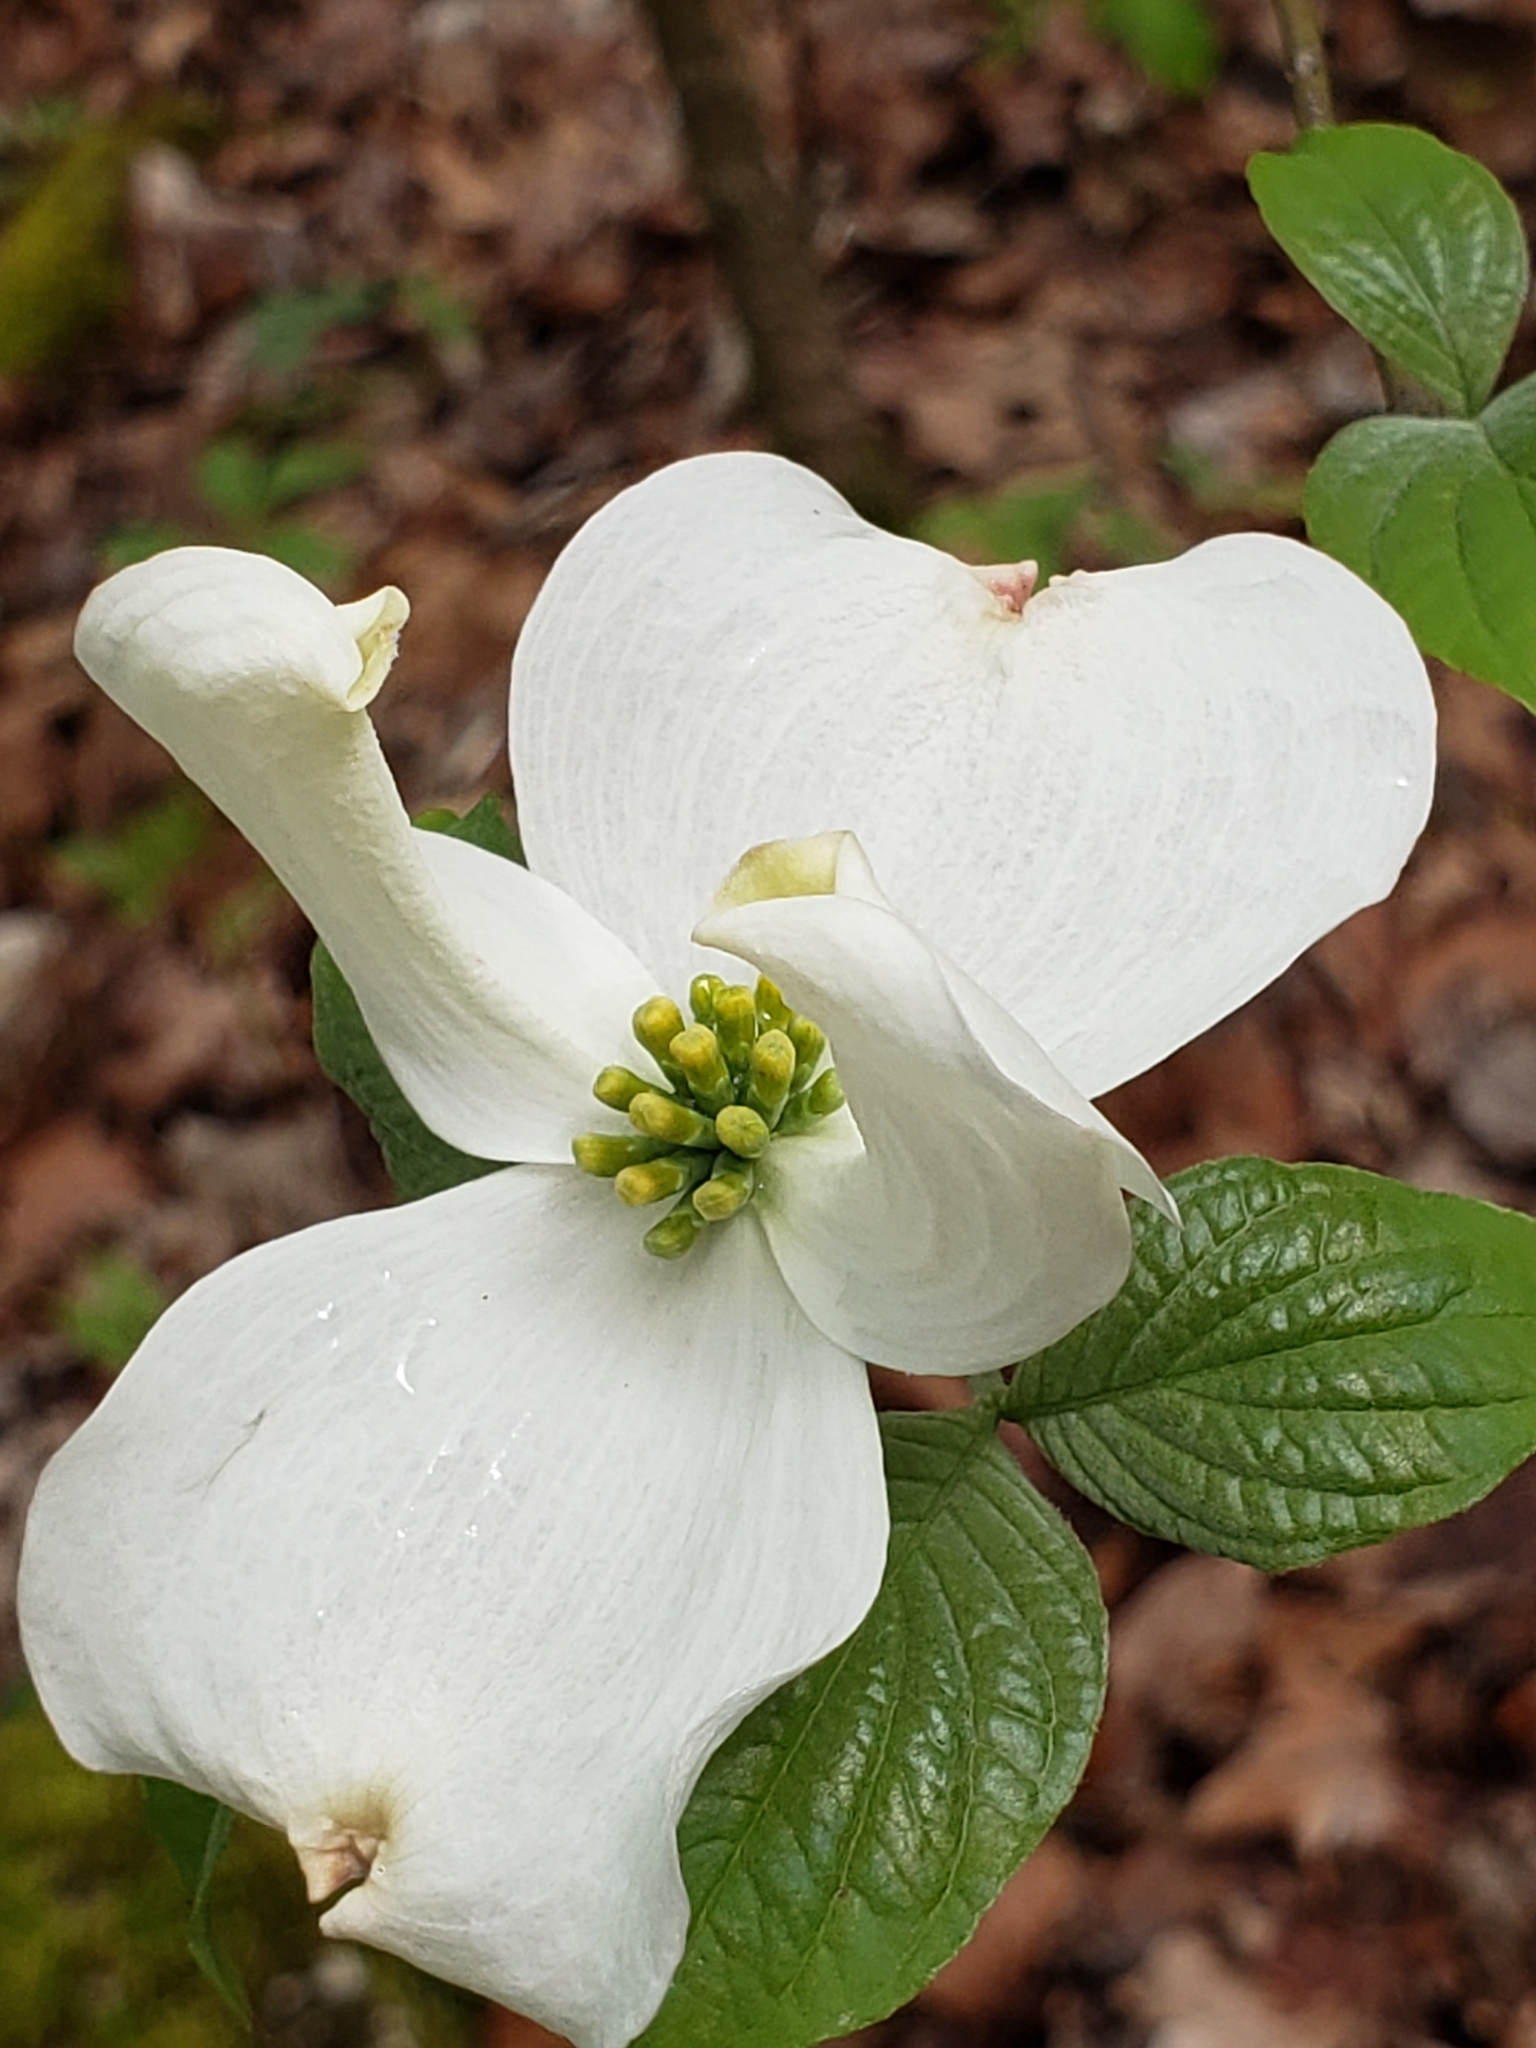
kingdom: Plantae
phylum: Tracheophyta
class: Magnoliopsida
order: Cornales
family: Cornaceae
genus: Cornus
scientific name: Cornus florida
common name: Flowering dogwood
